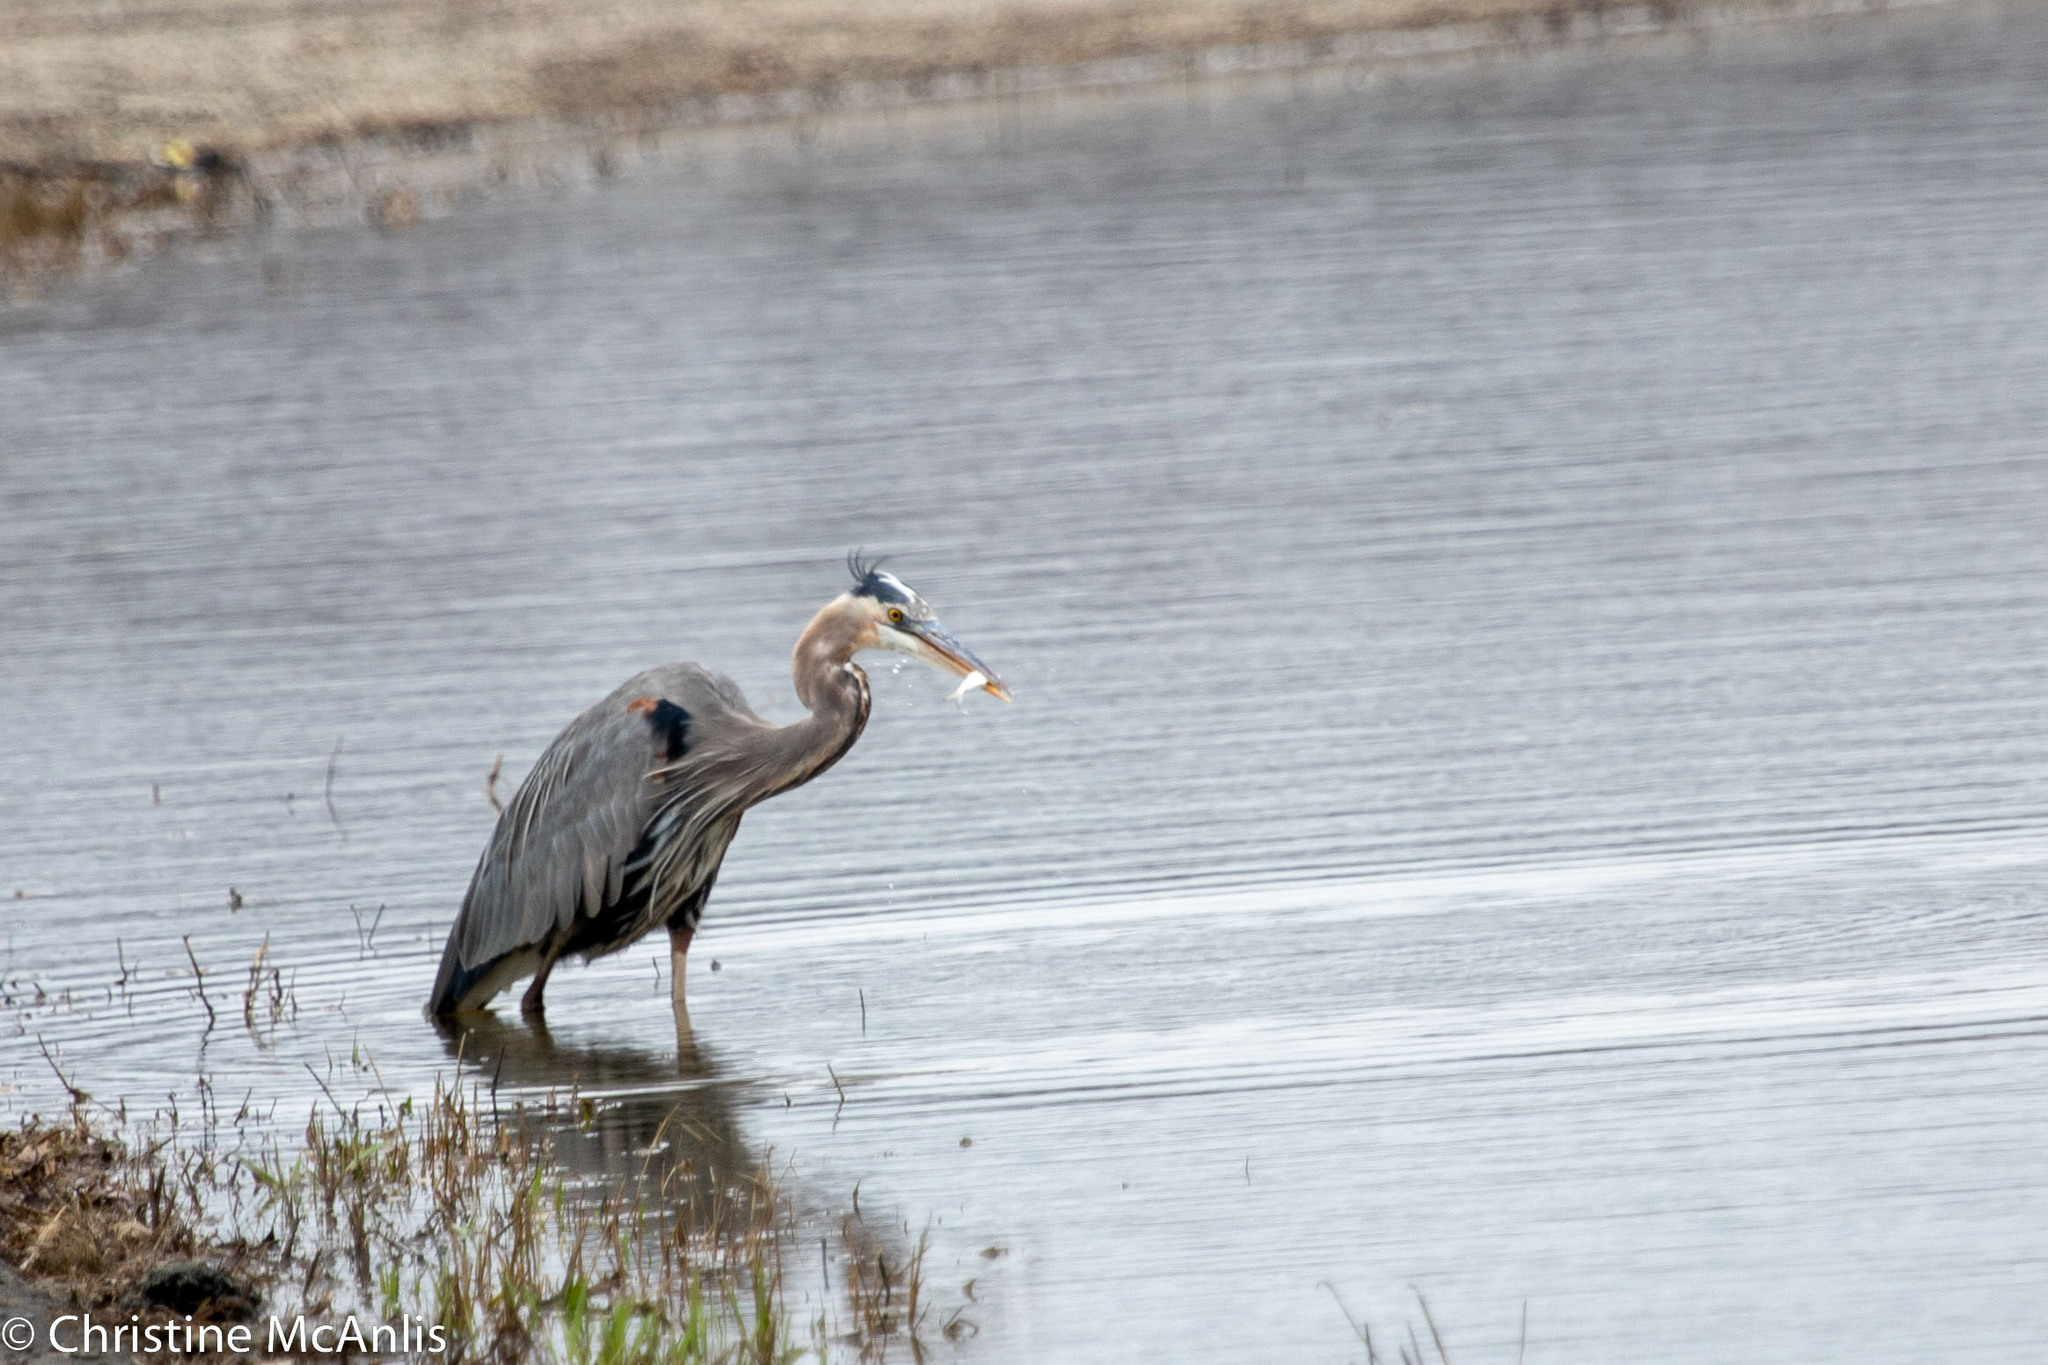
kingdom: Animalia
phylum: Chordata
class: Aves
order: Pelecaniformes
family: Ardeidae
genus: Ardea
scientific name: Ardea herodias
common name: Great blue heron
